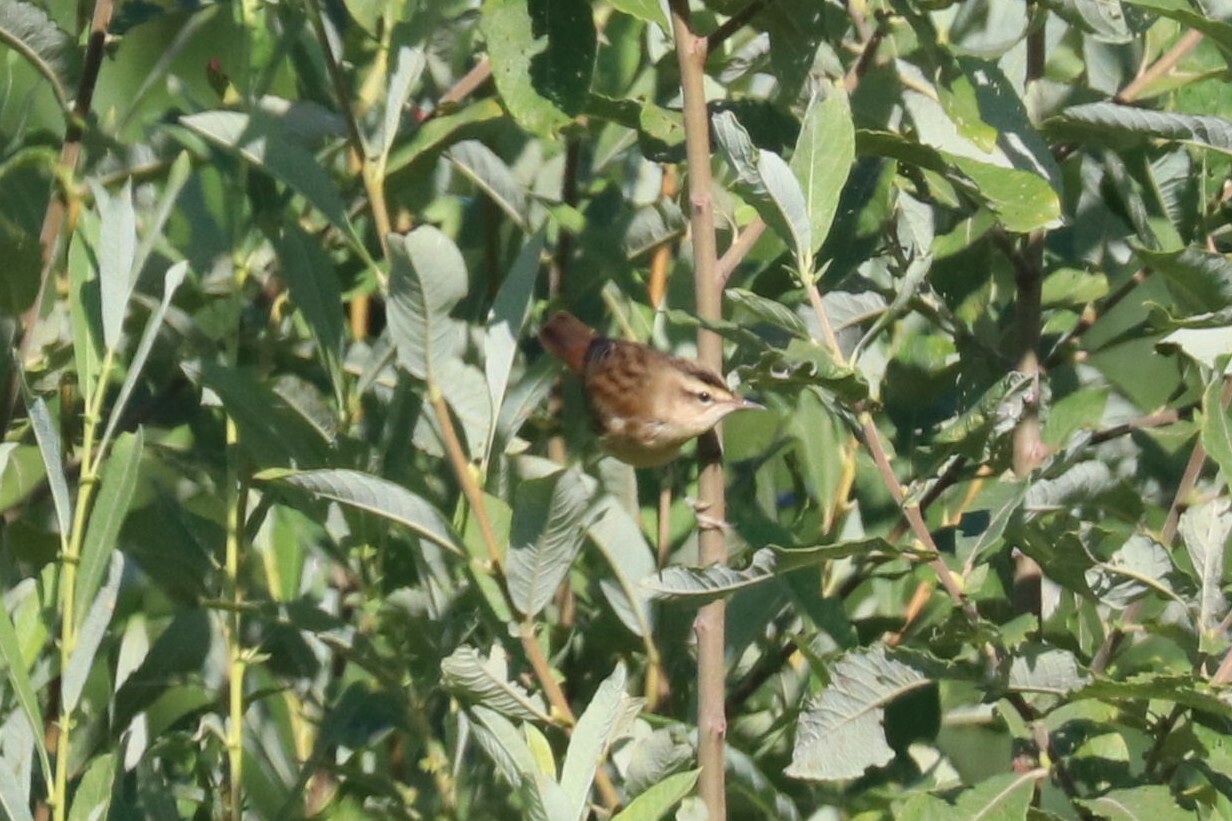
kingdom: Animalia
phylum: Chordata
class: Aves
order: Passeriformes
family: Acrocephalidae
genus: Acrocephalus
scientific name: Acrocephalus schoenobaenus
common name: Sedge warbler
